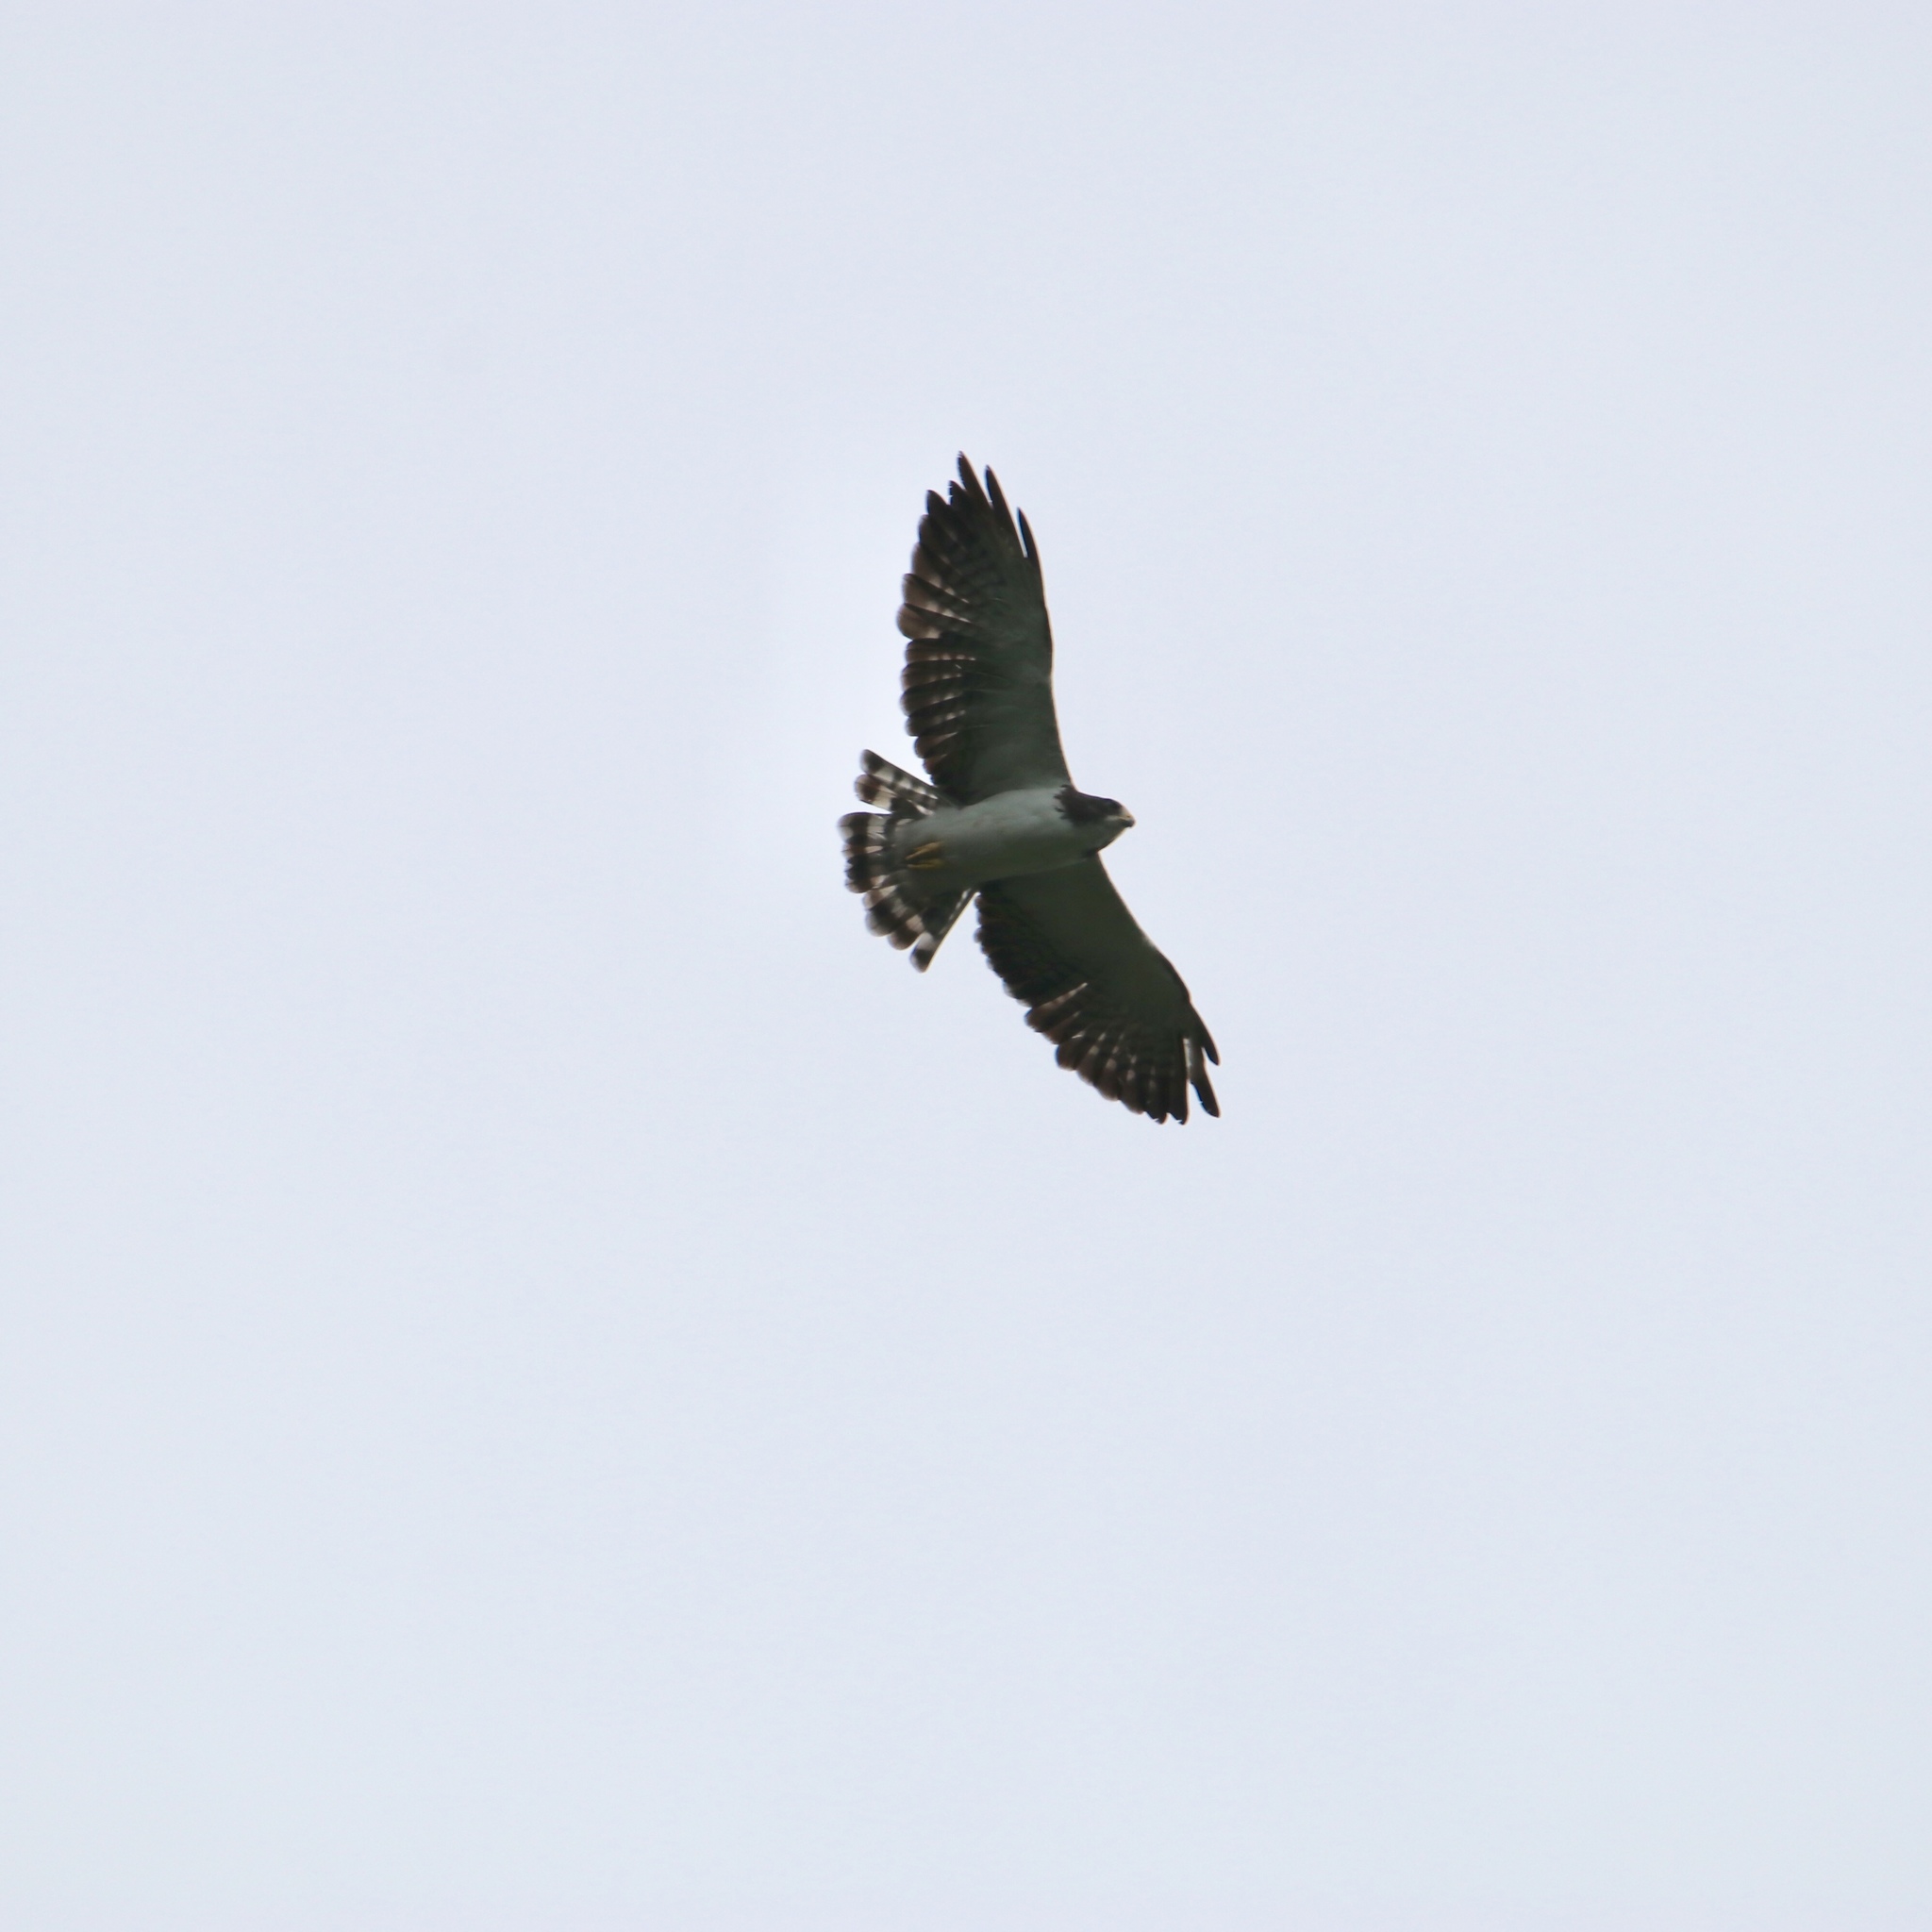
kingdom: Animalia
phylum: Chordata
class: Aves
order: Accipitriformes
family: Accipitridae
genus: Buteo
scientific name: Buteo brachyurus
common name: Short-tailed hawk
